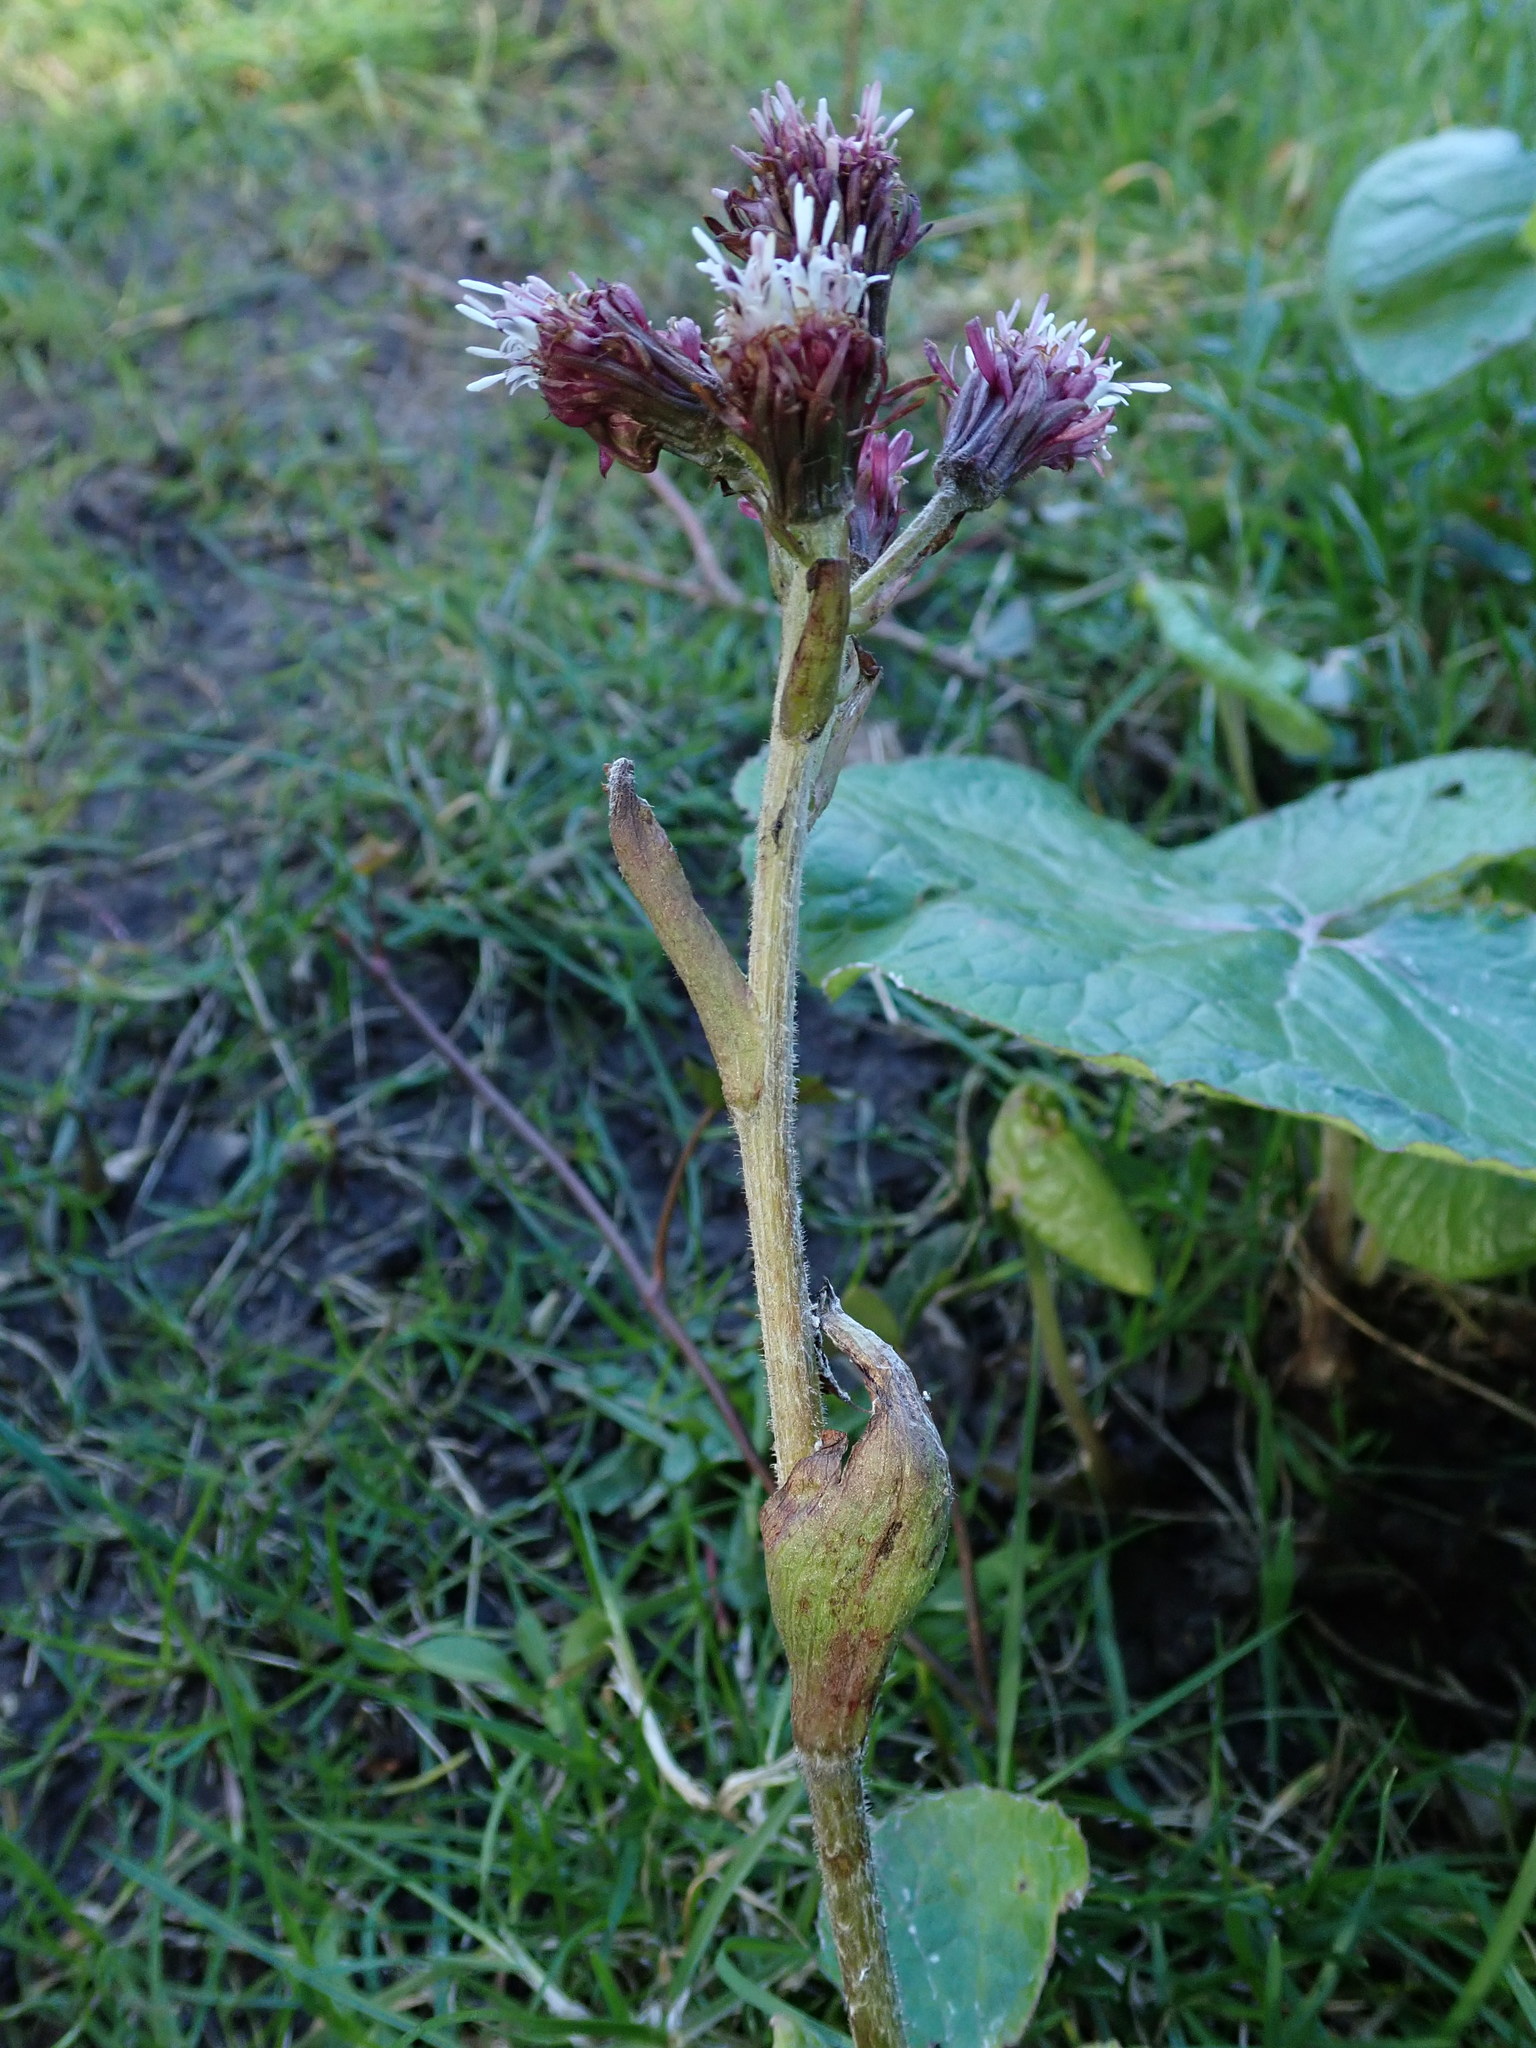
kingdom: Plantae
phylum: Tracheophyta
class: Magnoliopsida
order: Asterales
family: Asteraceae
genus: Petasites
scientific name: Petasites pyrenaicus
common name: Winter heliotrope
